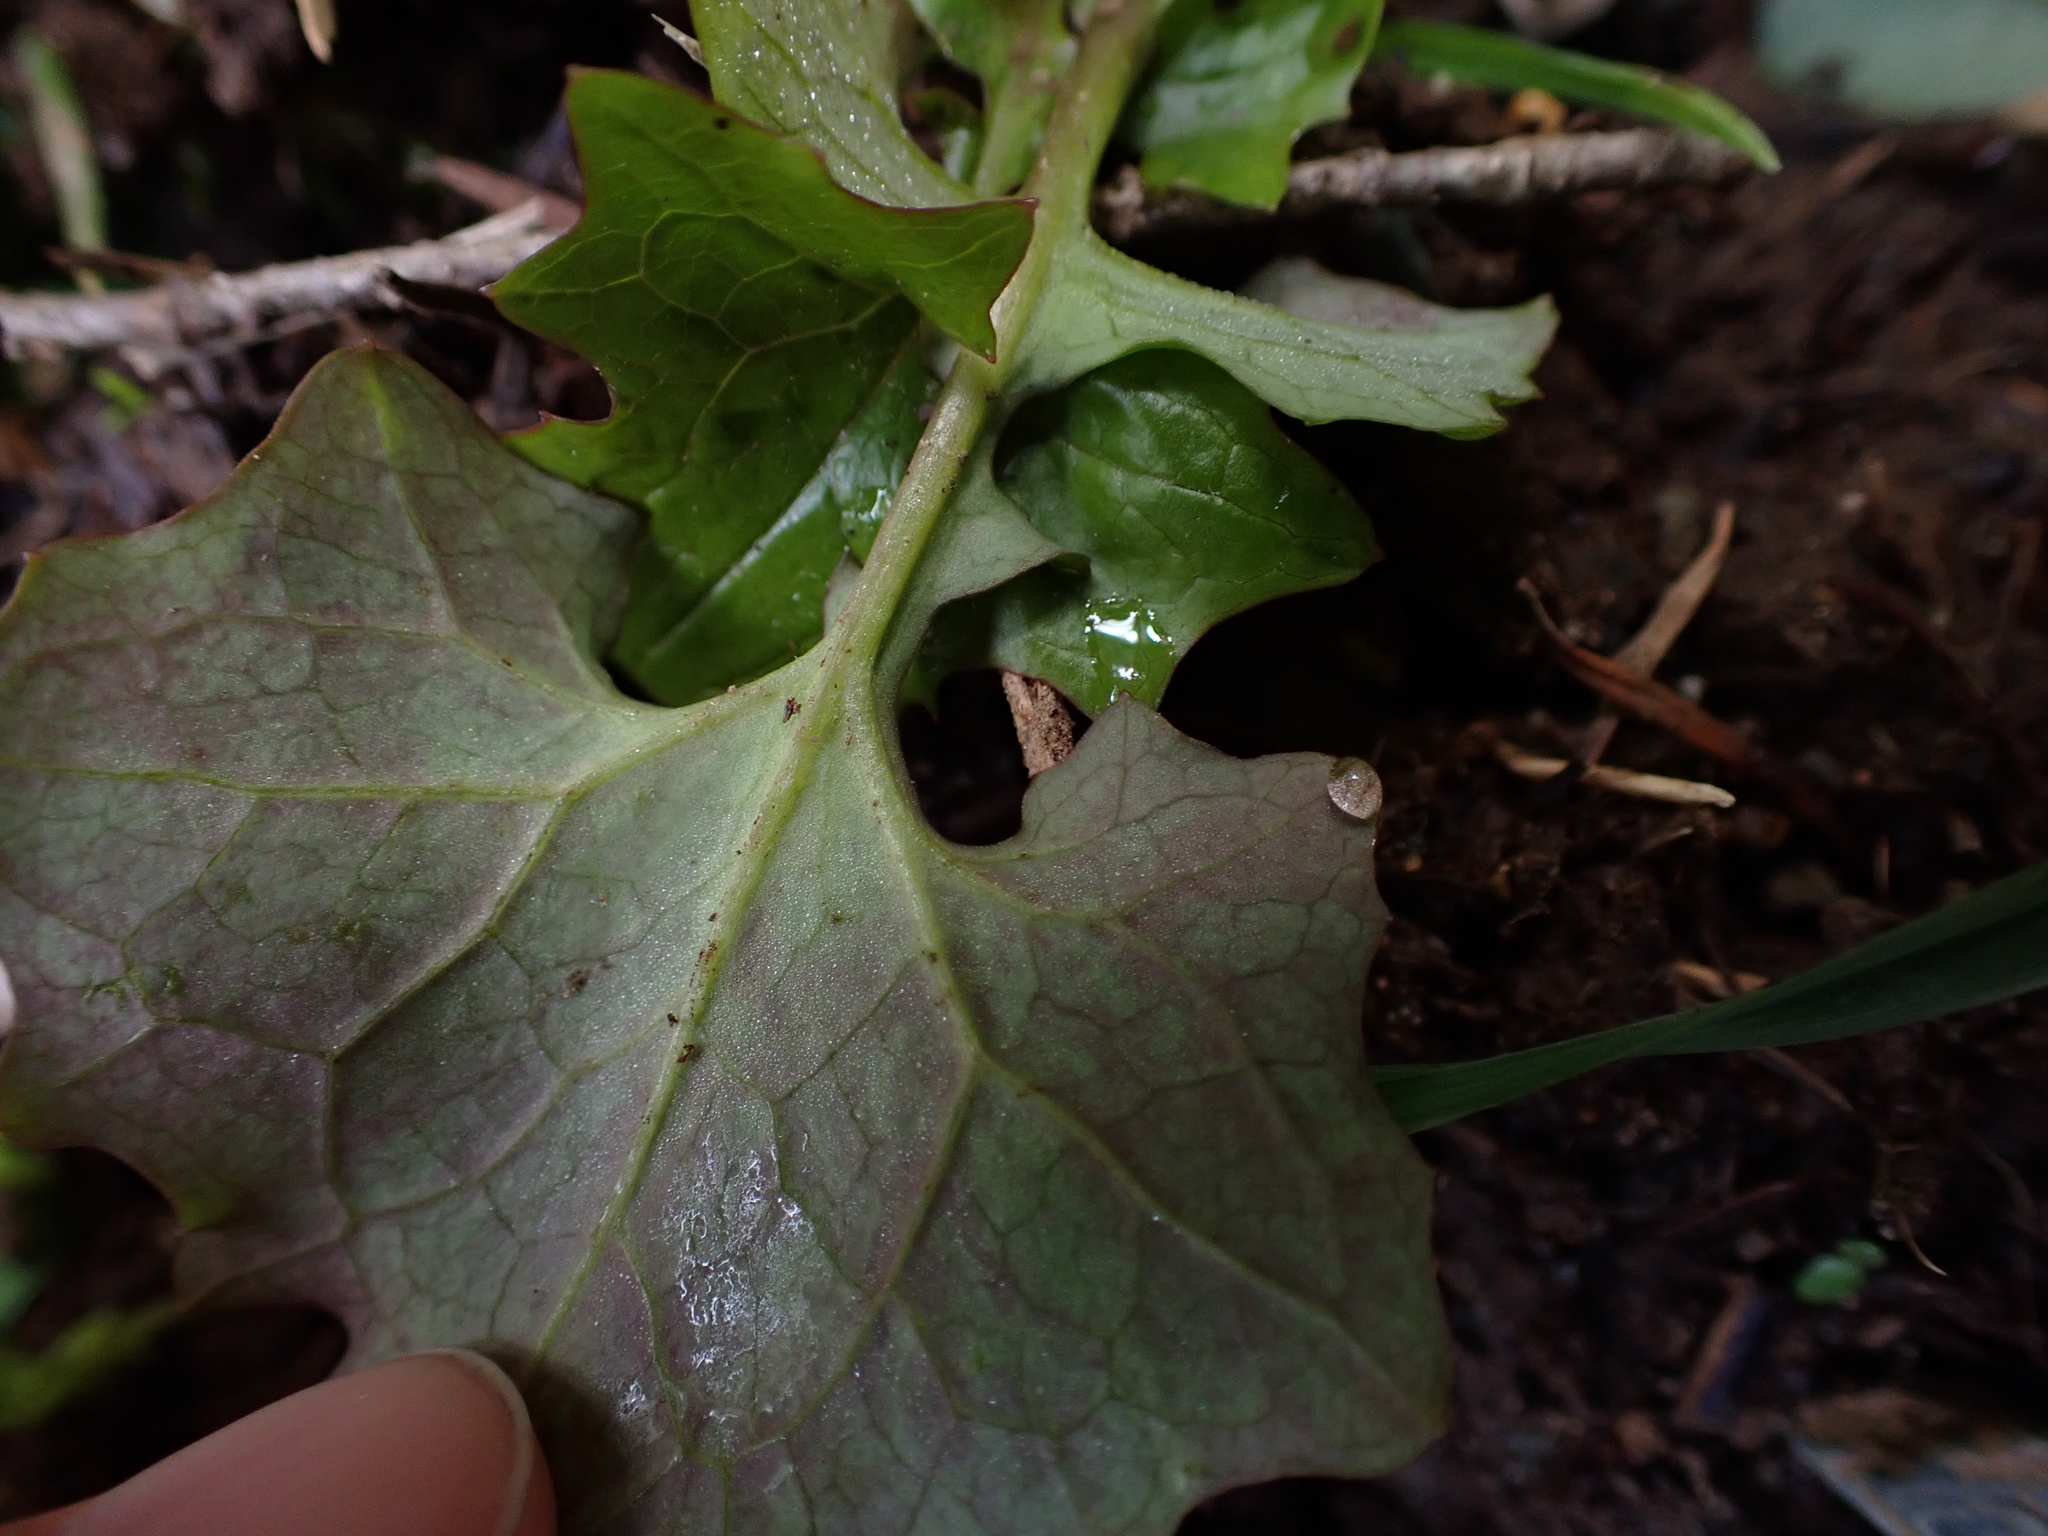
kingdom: Plantae
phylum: Tracheophyta
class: Magnoliopsida
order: Asterales
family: Asteraceae
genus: Mycelis
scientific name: Mycelis muralis
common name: Wall lettuce
